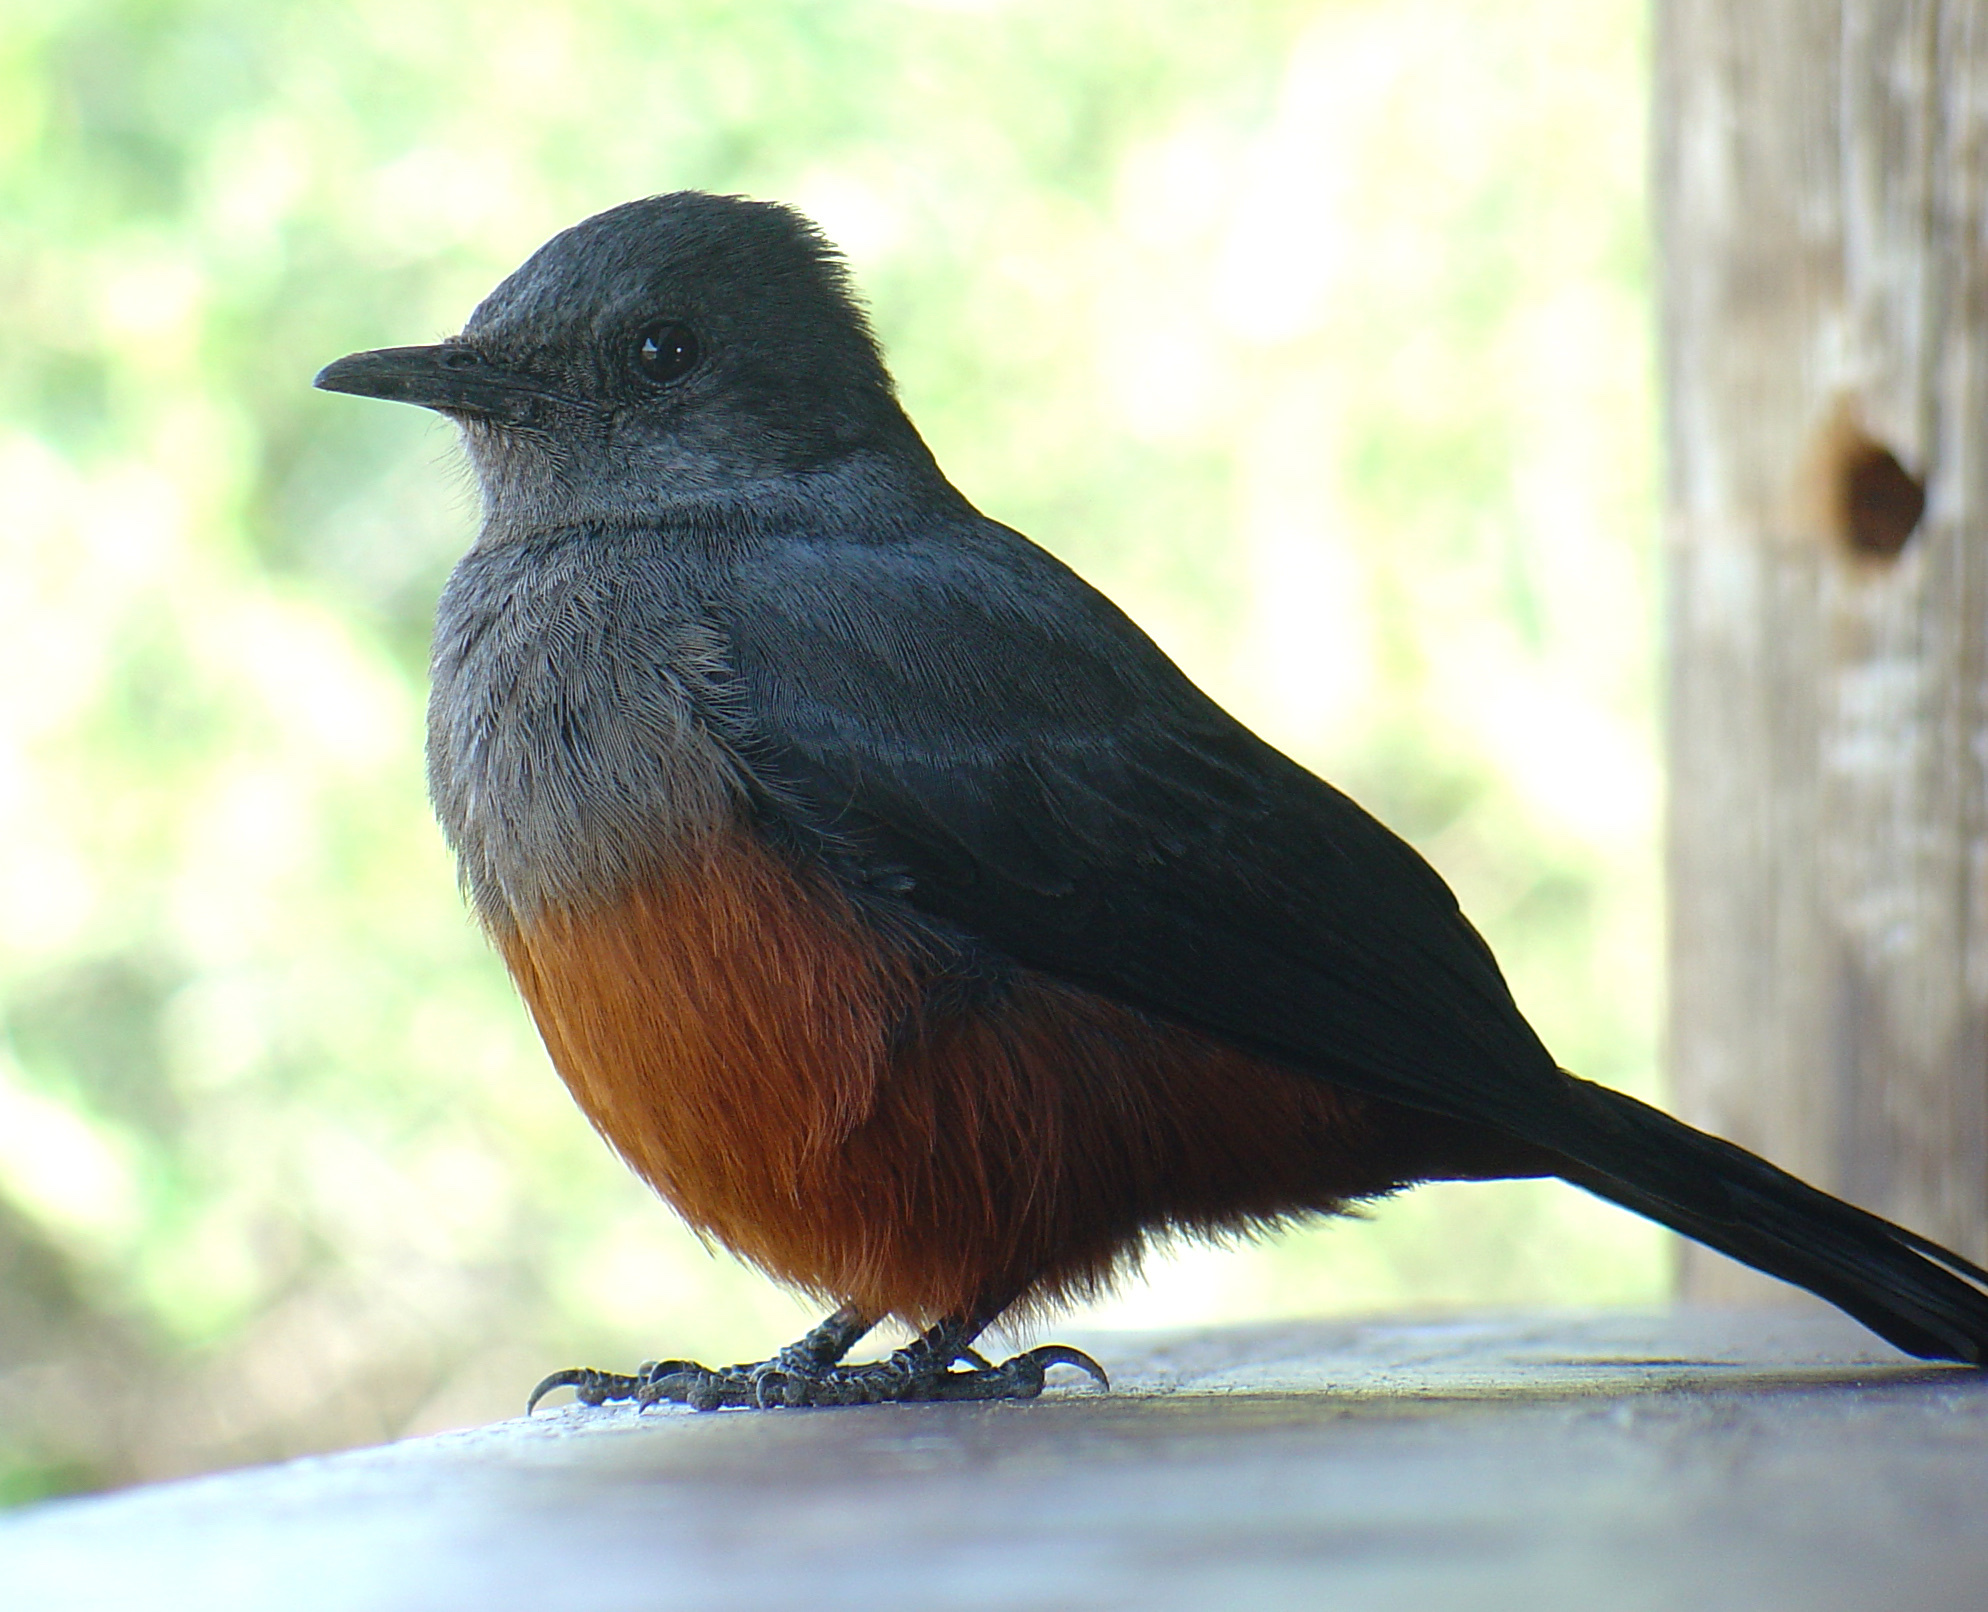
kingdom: Animalia
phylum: Chordata
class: Aves
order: Passeriformes
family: Muscicapidae
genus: Thamnolaea
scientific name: Thamnolaea cinnamomeiventris
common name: Mocking cliff chat
